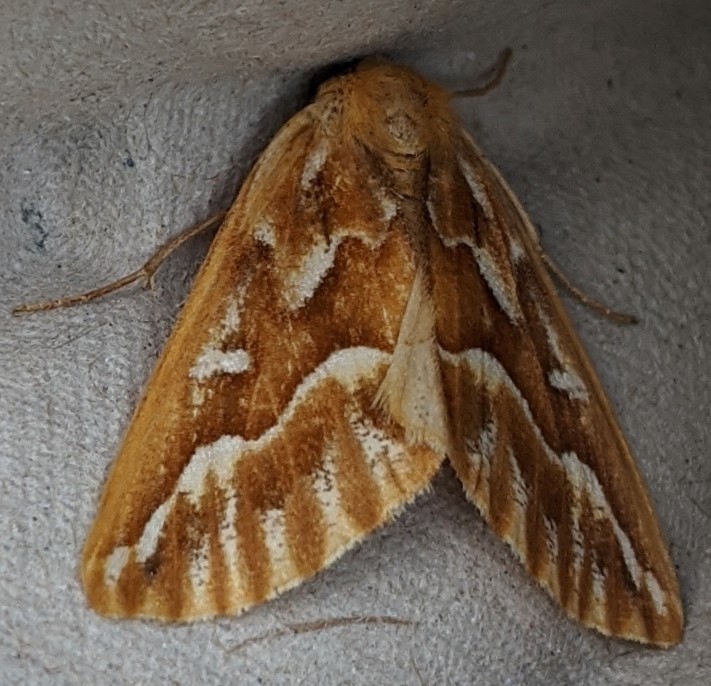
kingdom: Animalia
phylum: Arthropoda
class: Insecta
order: Lepidoptera
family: Geometridae
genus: Caripeta
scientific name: Caripeta piniata
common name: Northern pine looper moth
